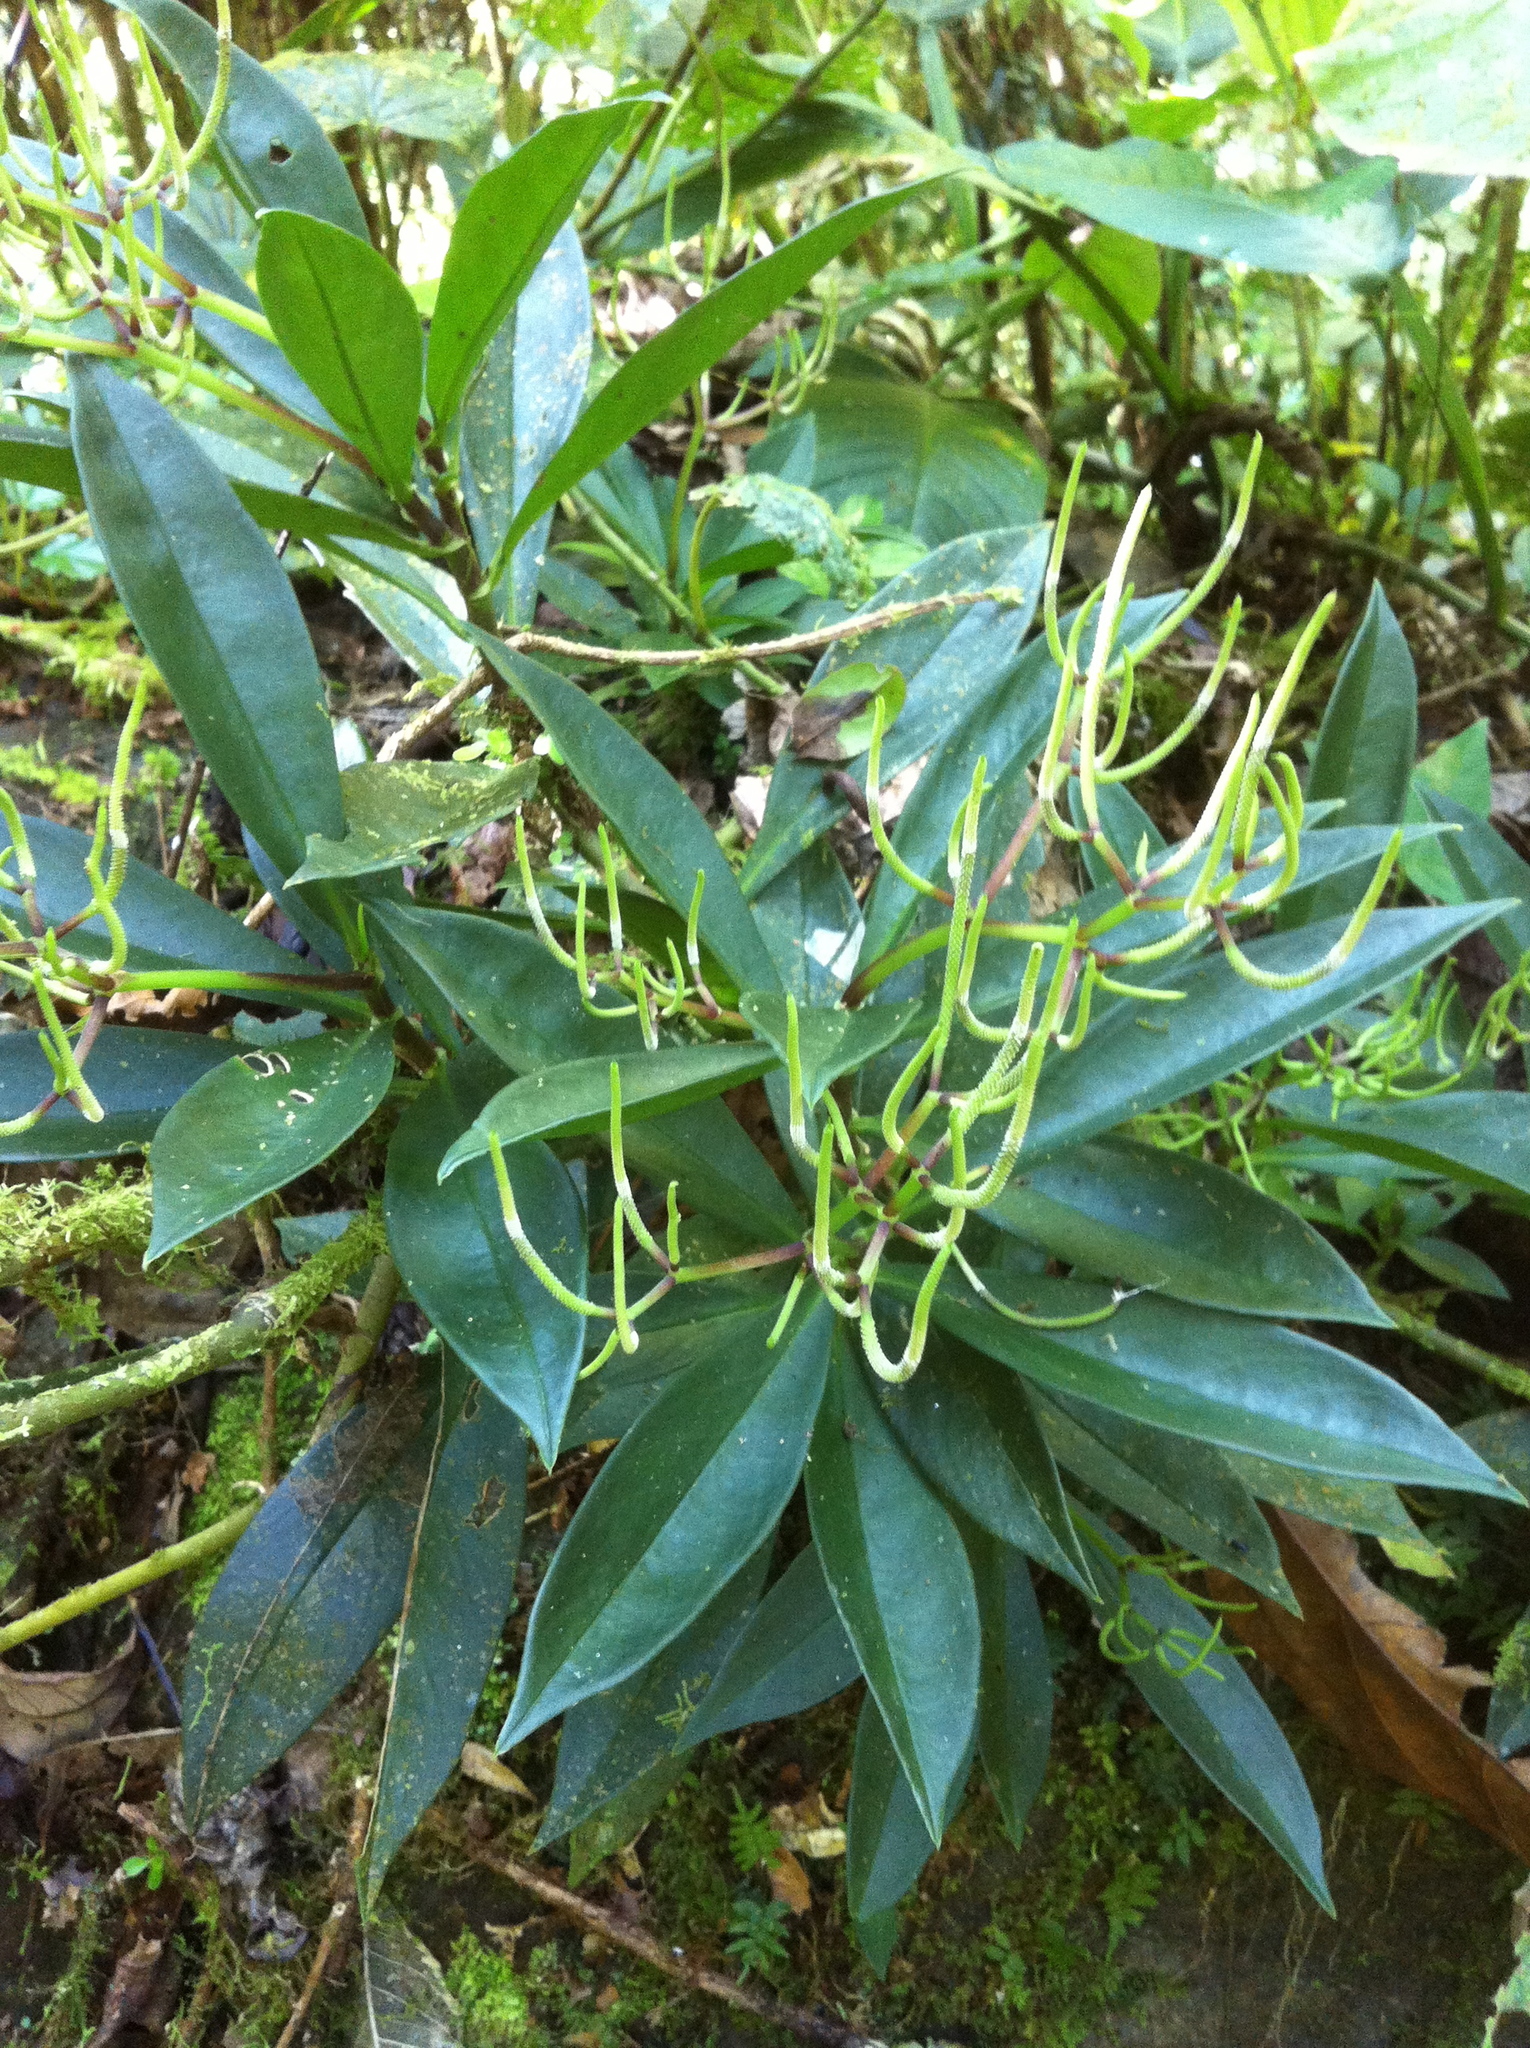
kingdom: Plantae
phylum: Tracheophyta
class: Magnoliopsida
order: Piperales
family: Piperaceae
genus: Peperomia
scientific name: Peperomia sessilifolia
